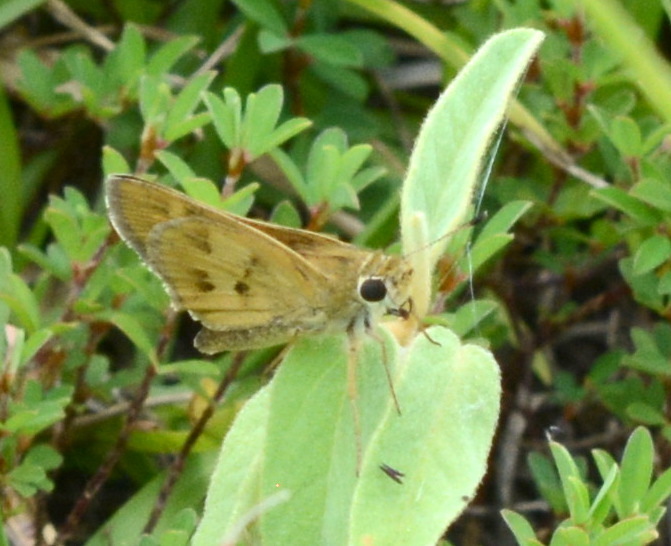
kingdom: Animalia
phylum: Arthropoda
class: Insecta
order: Lepidoptera
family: Hesperiidae
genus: Polites
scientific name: Polites vibex
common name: Whirlabout
